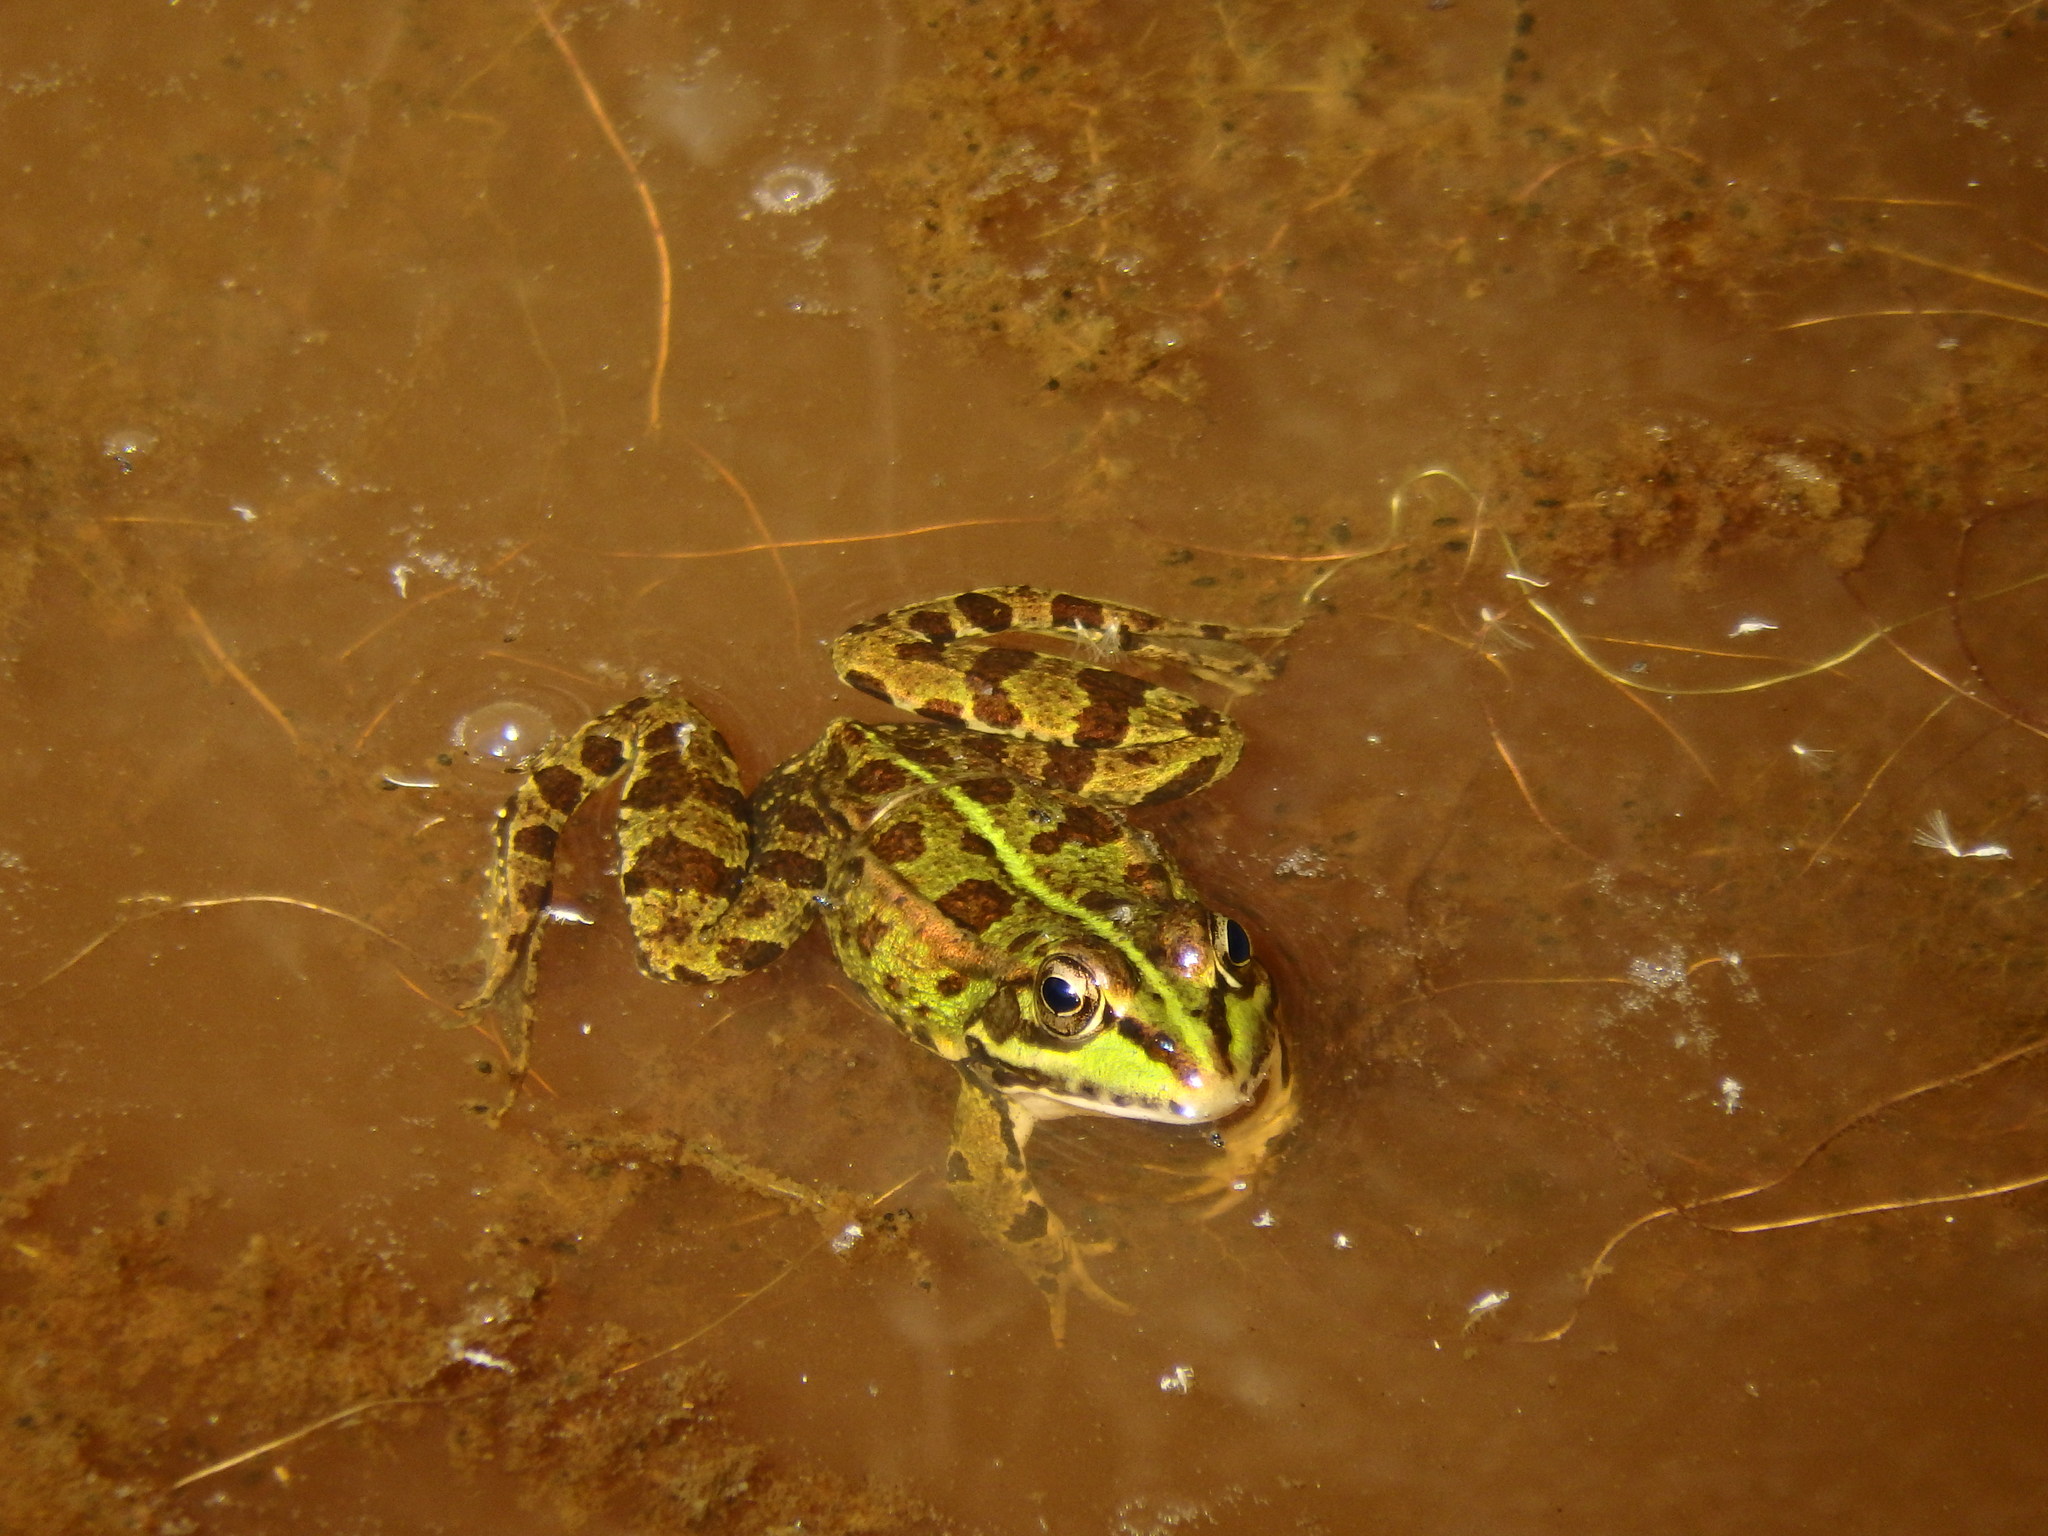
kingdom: Animalia
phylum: Chordata
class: Amphibia
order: Anura
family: Ranidae
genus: Pelophylax
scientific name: Pelophylax perezi
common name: Perez's frog
